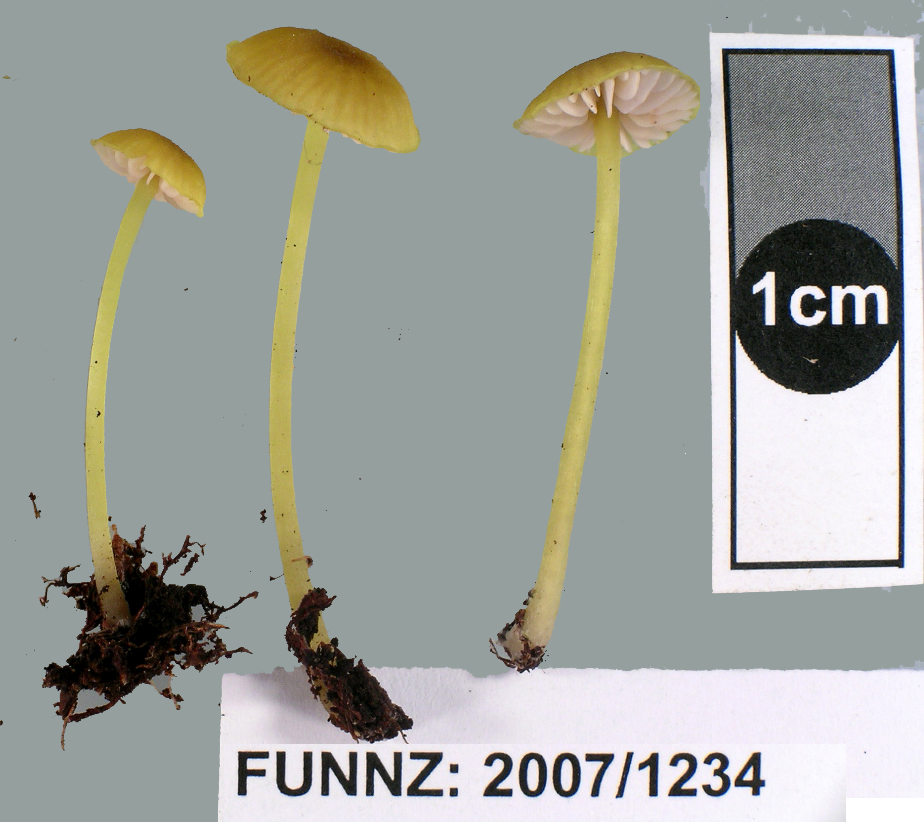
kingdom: Fungi
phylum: Basidiomycota
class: Agaricomycetes
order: Agaricales
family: Entolomataceae
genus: Entoloma
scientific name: Entoloma readiae
